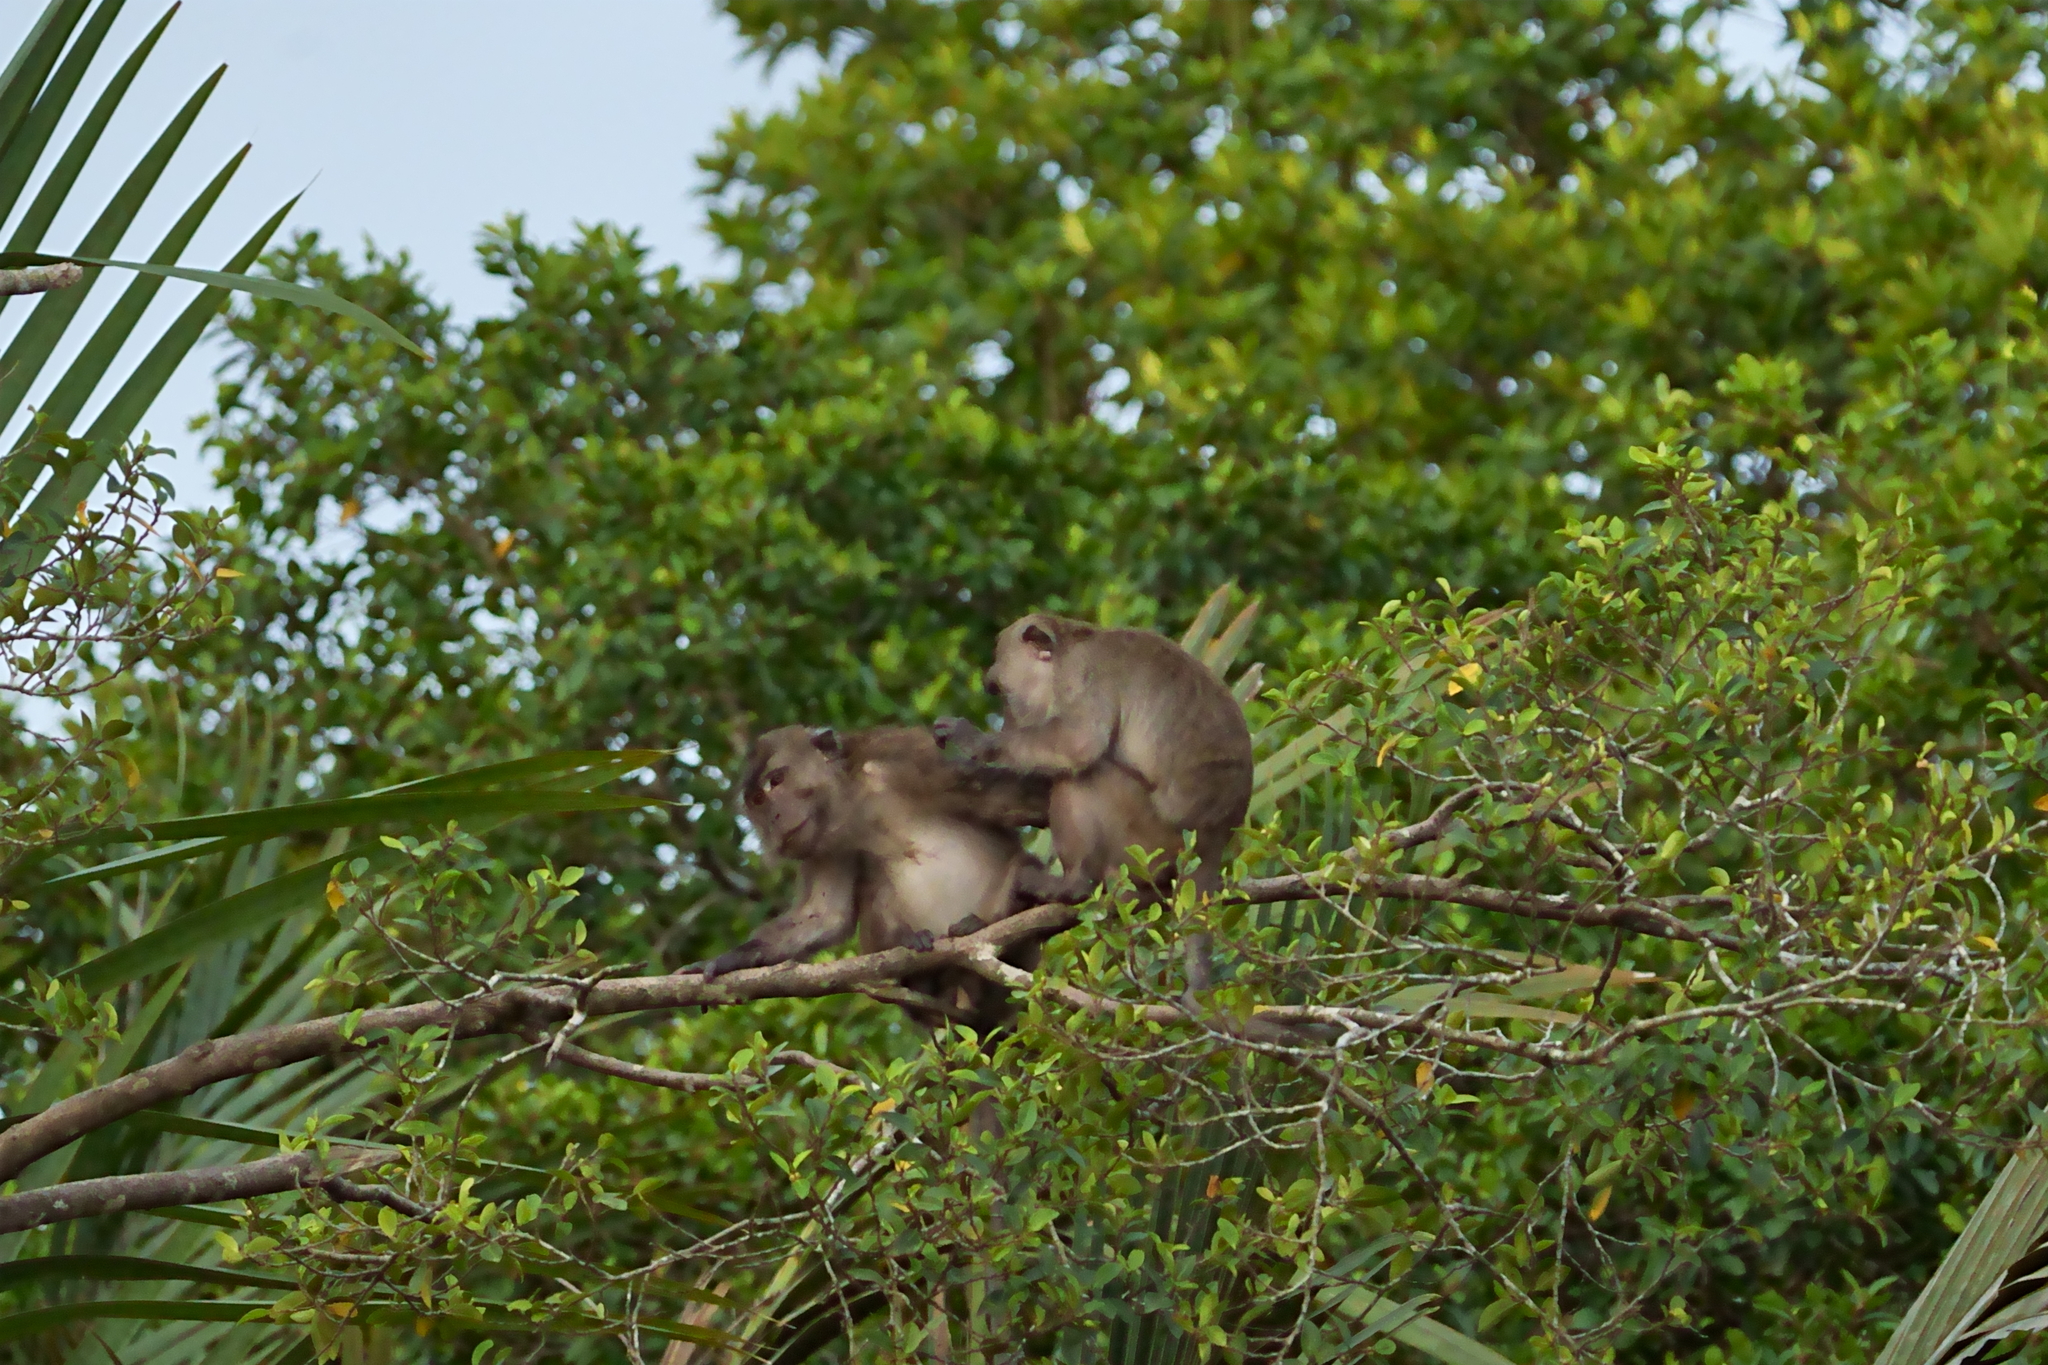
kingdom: Animalia
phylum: Chordata
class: Mammalia
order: Primates
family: Cercopithecidae
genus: Macaca
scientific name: Macaca fascicularis
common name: Crab-eating macaque
